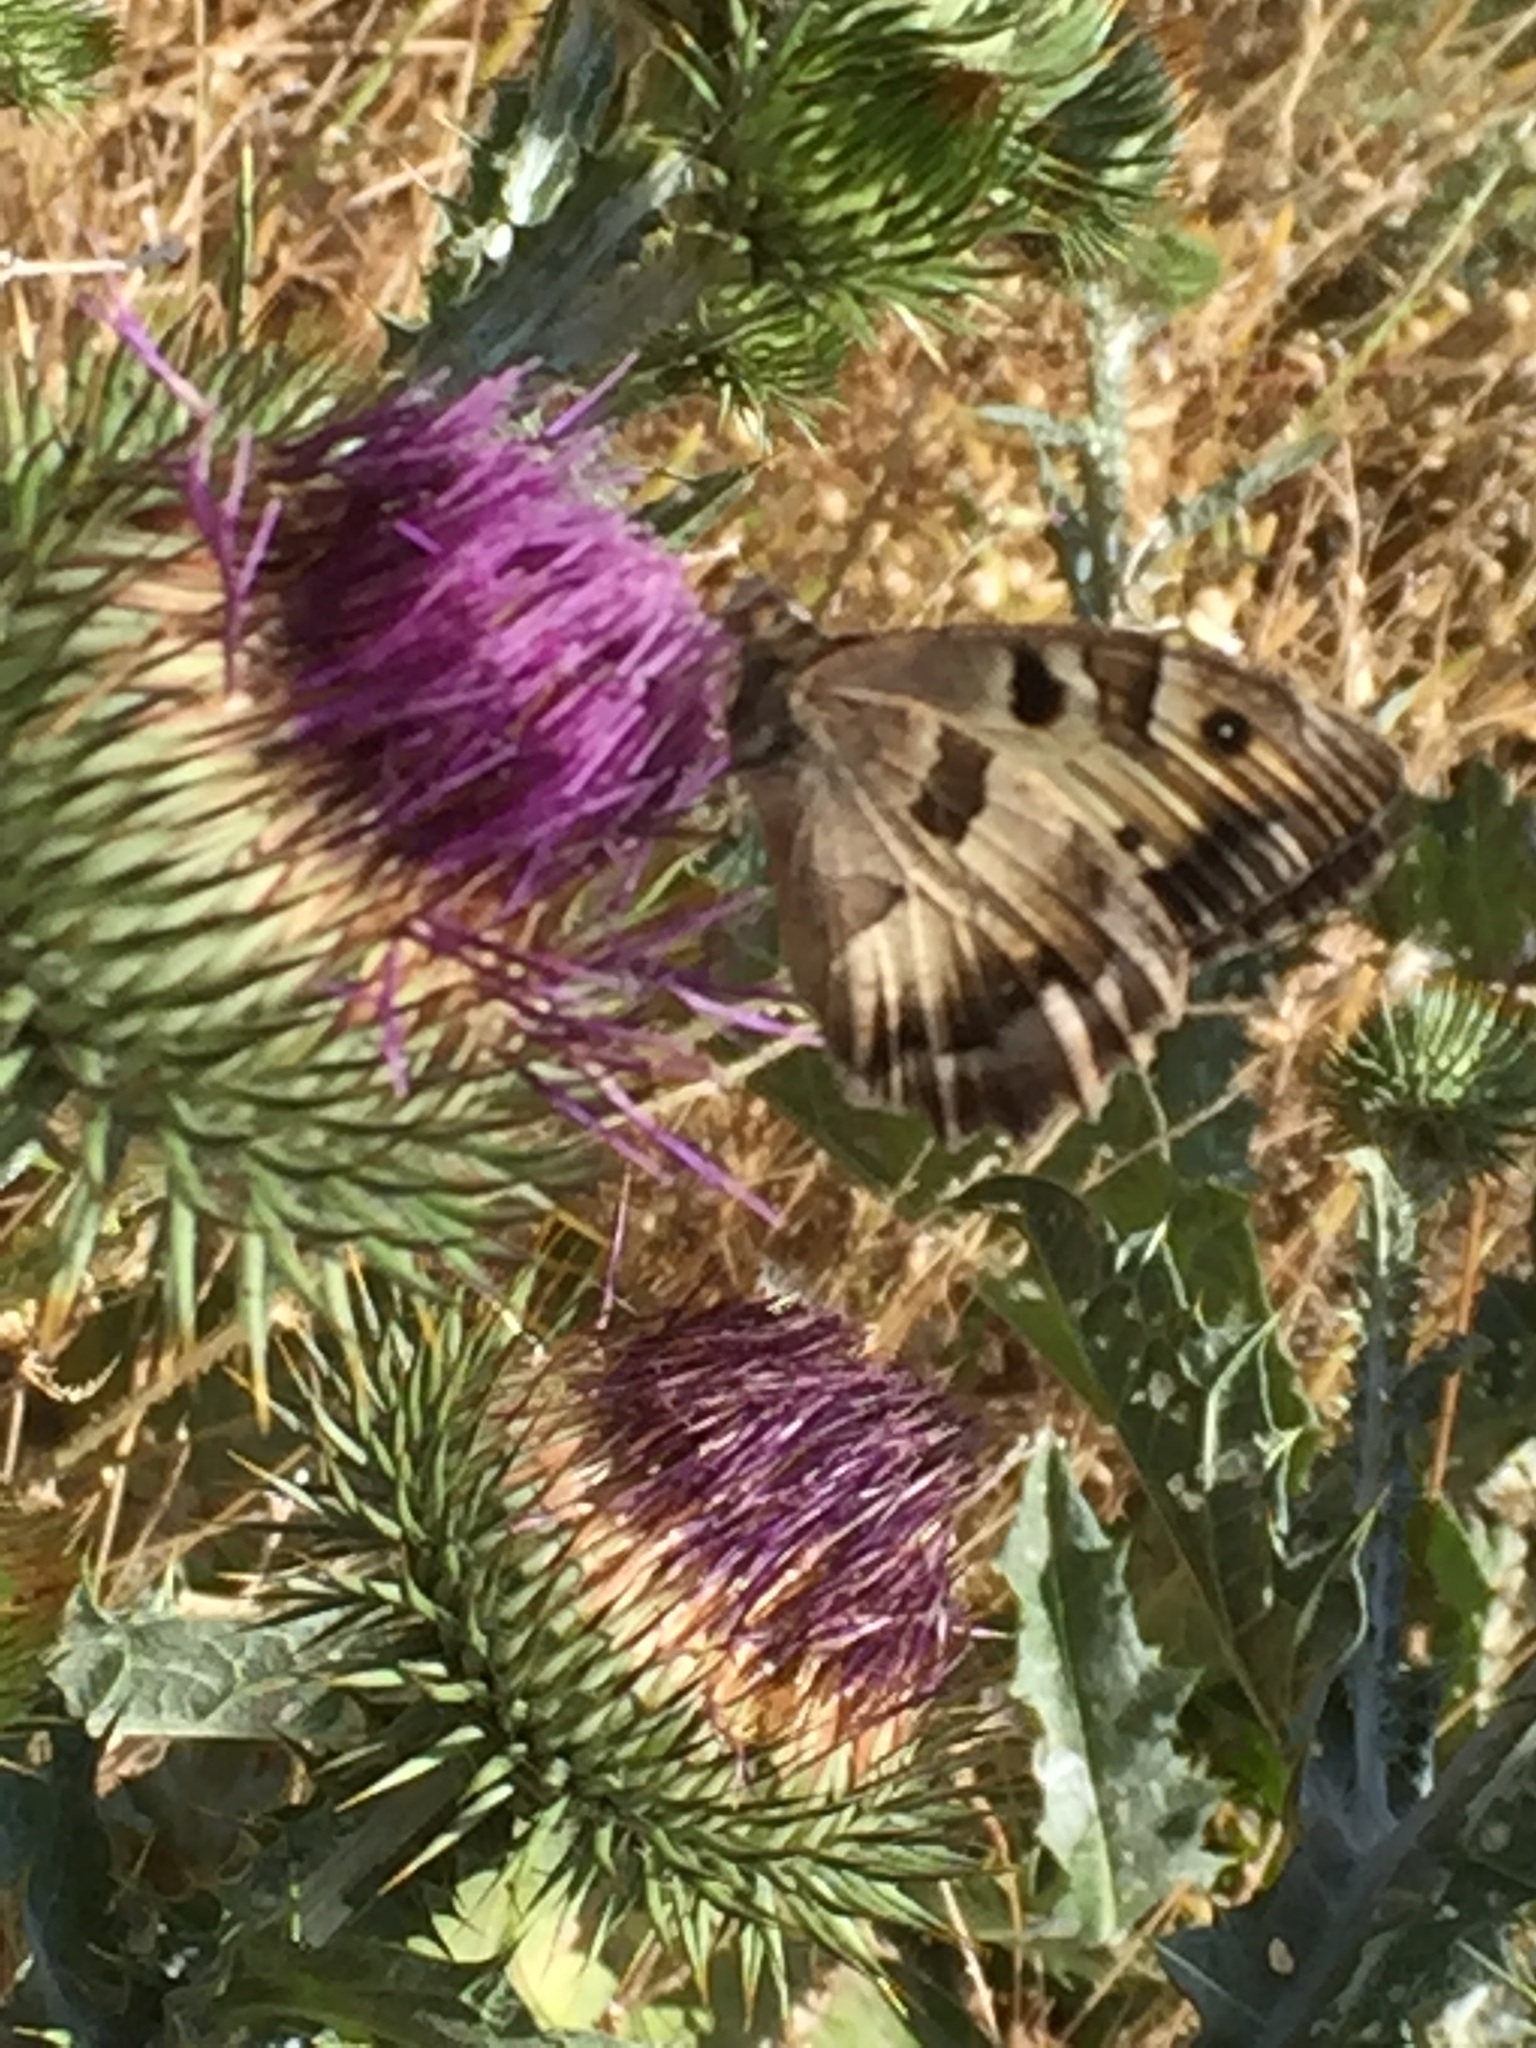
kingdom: Animalia
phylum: Arthropoda
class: Insecta
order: Lepidoptera
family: Nymphalidae
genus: Satyrus
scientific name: Satyrus briseis
